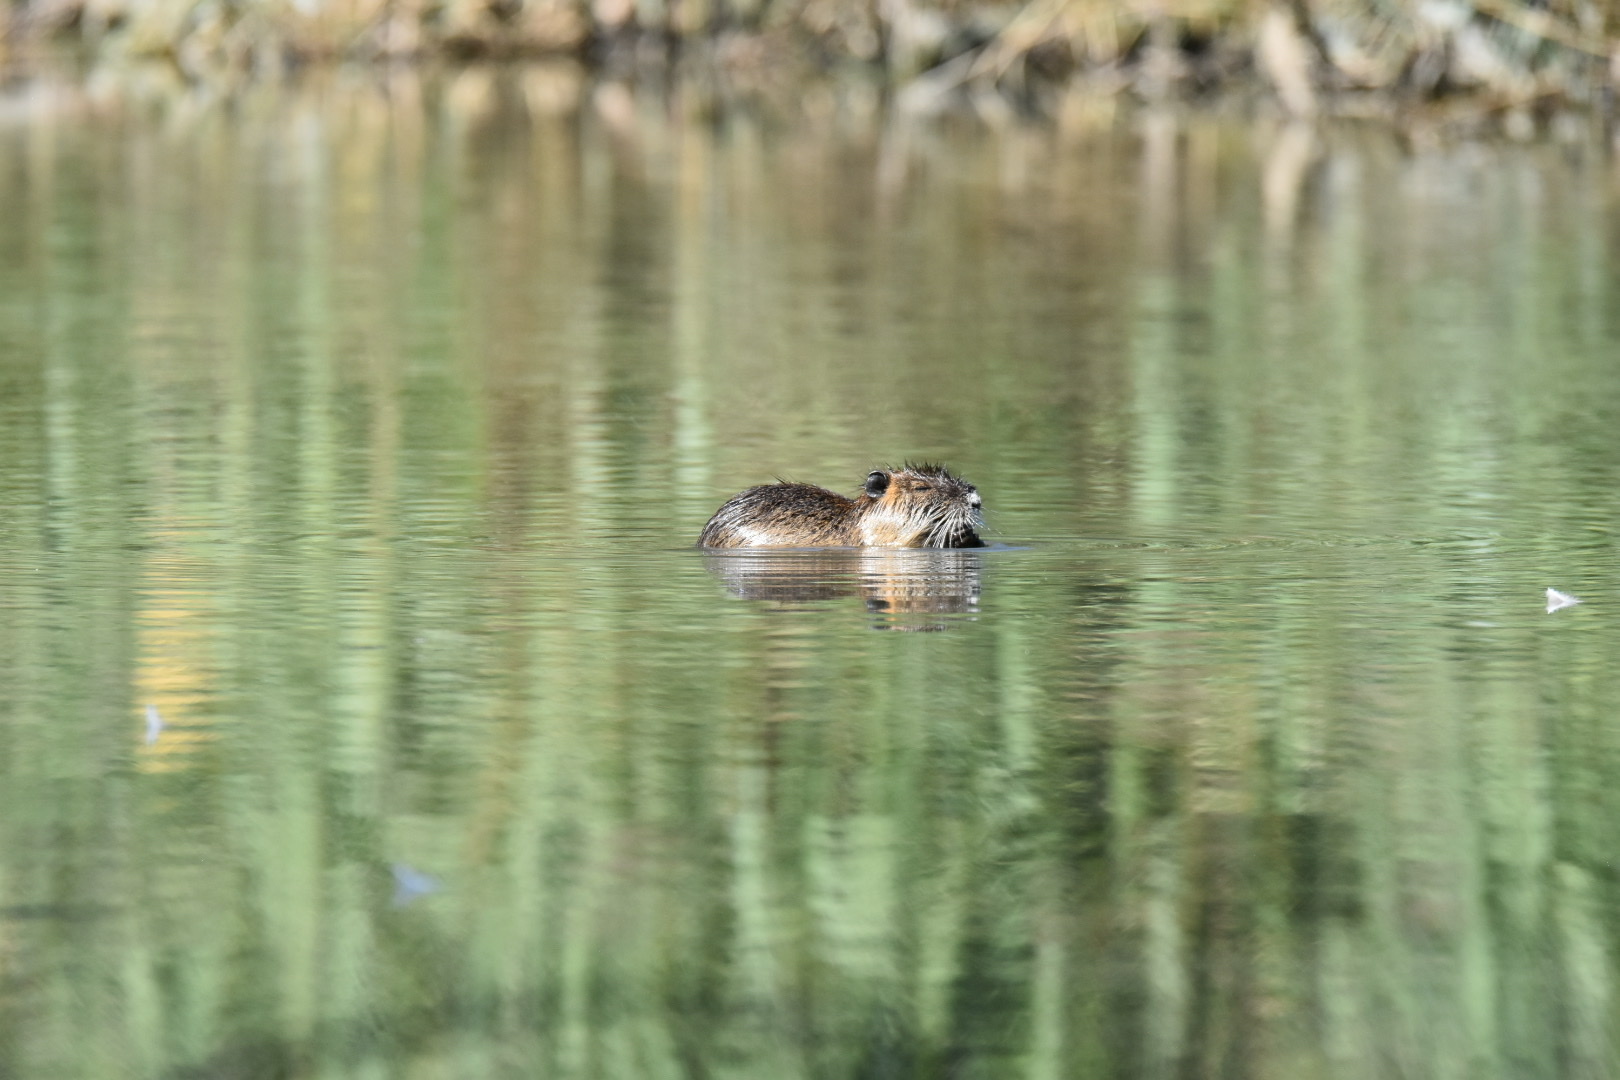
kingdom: Animalia
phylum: Chordata
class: Mammalia
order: Rodentia
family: Myocastoridae
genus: Myocastor
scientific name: Myocastor coypus
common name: Coypu
